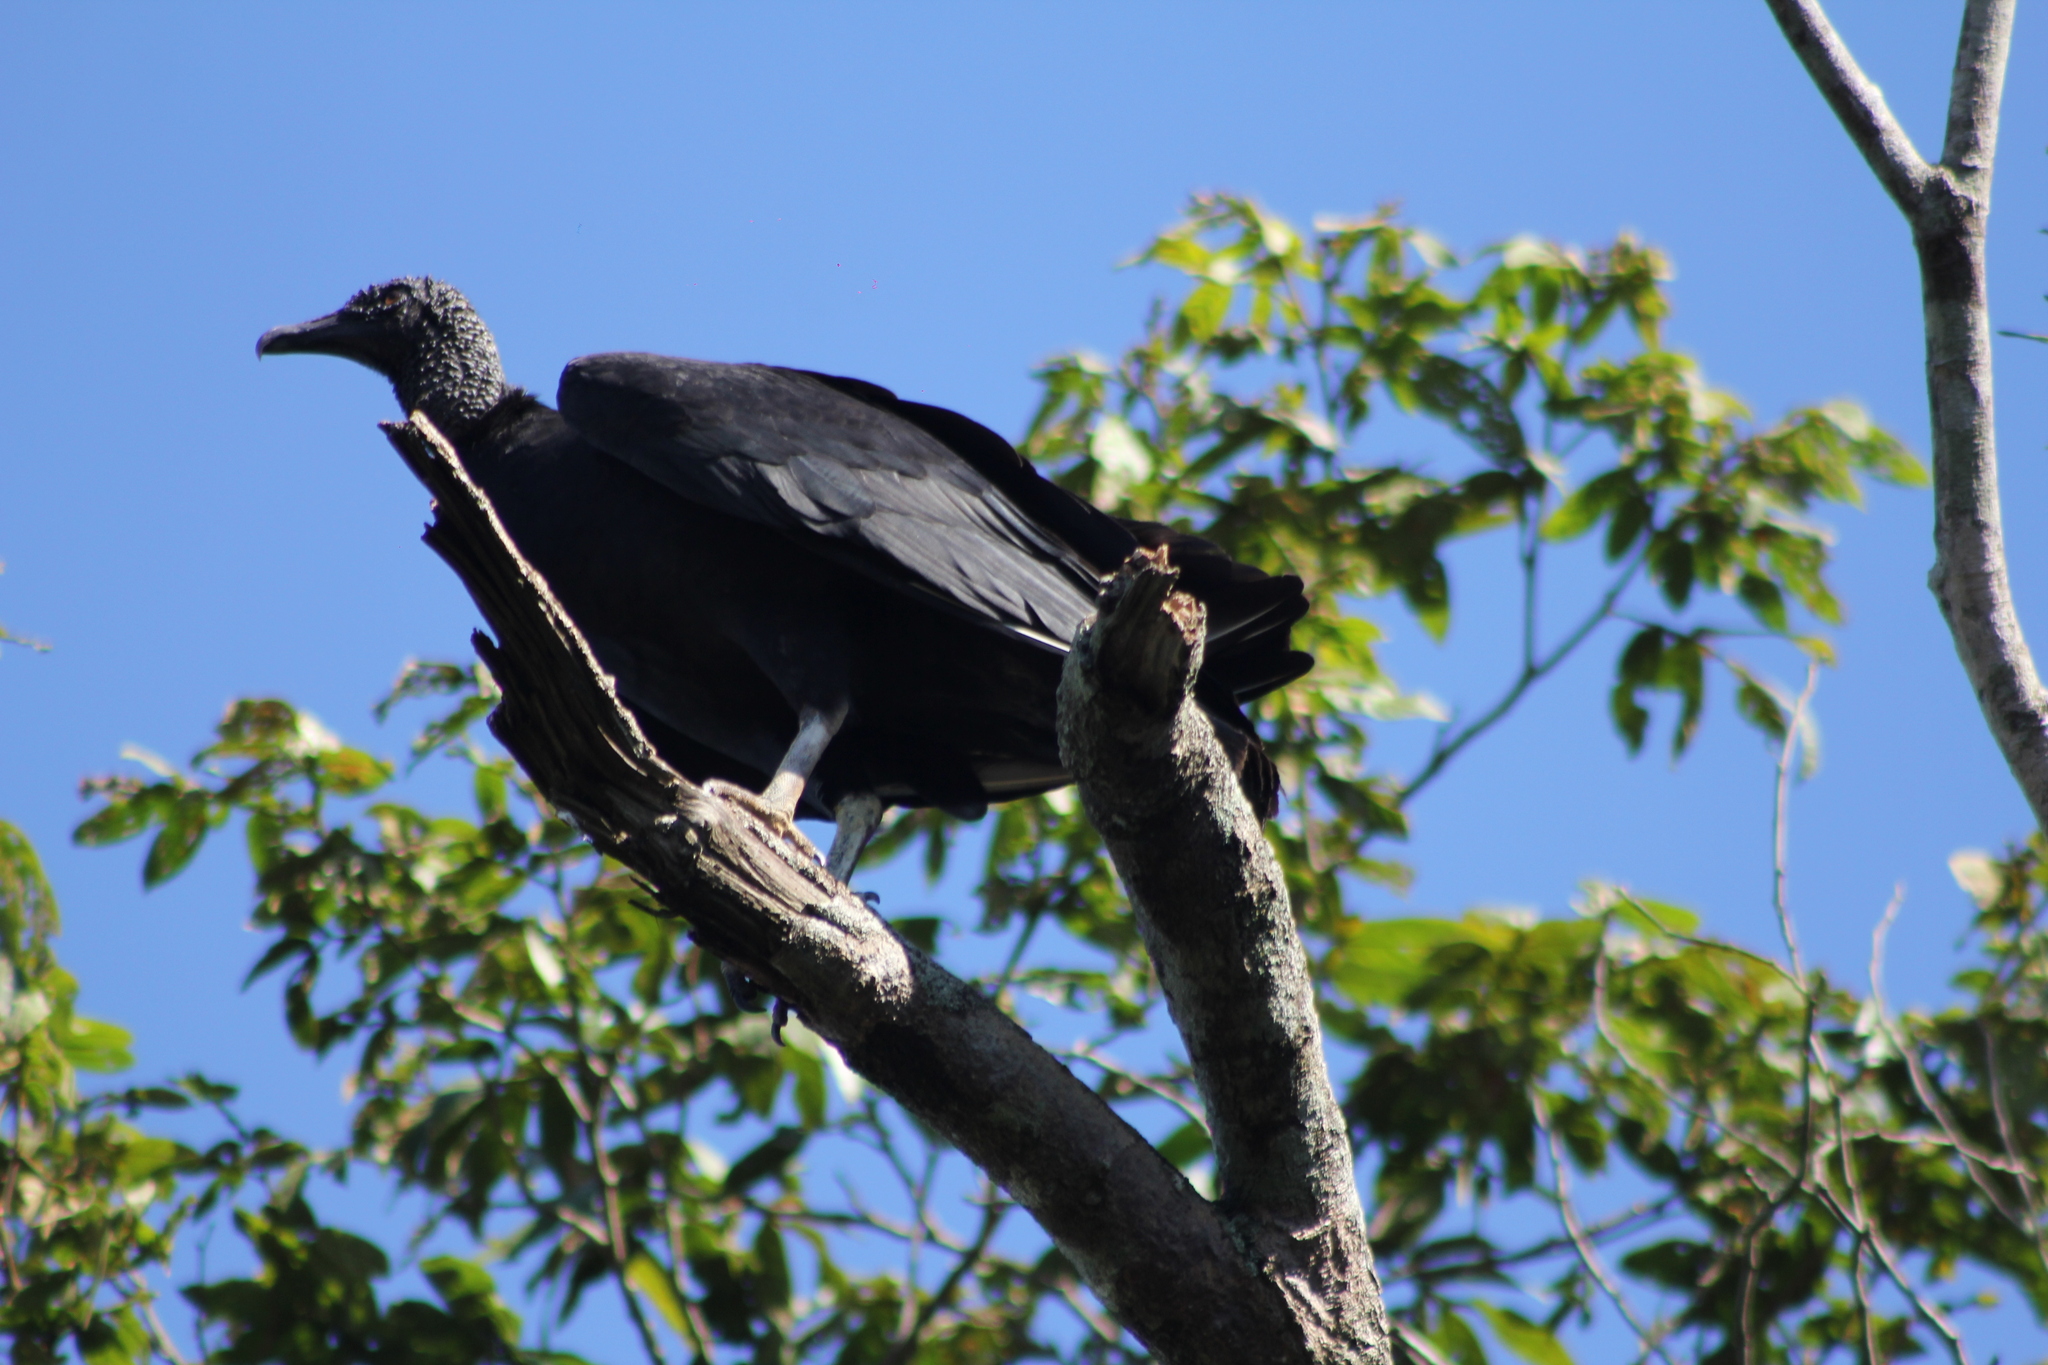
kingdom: Animalia
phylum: Chordata
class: Aves
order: Accipitriformes
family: Cathartidae
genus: Coragyps
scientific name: Coragyps atratus
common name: Black vulture
